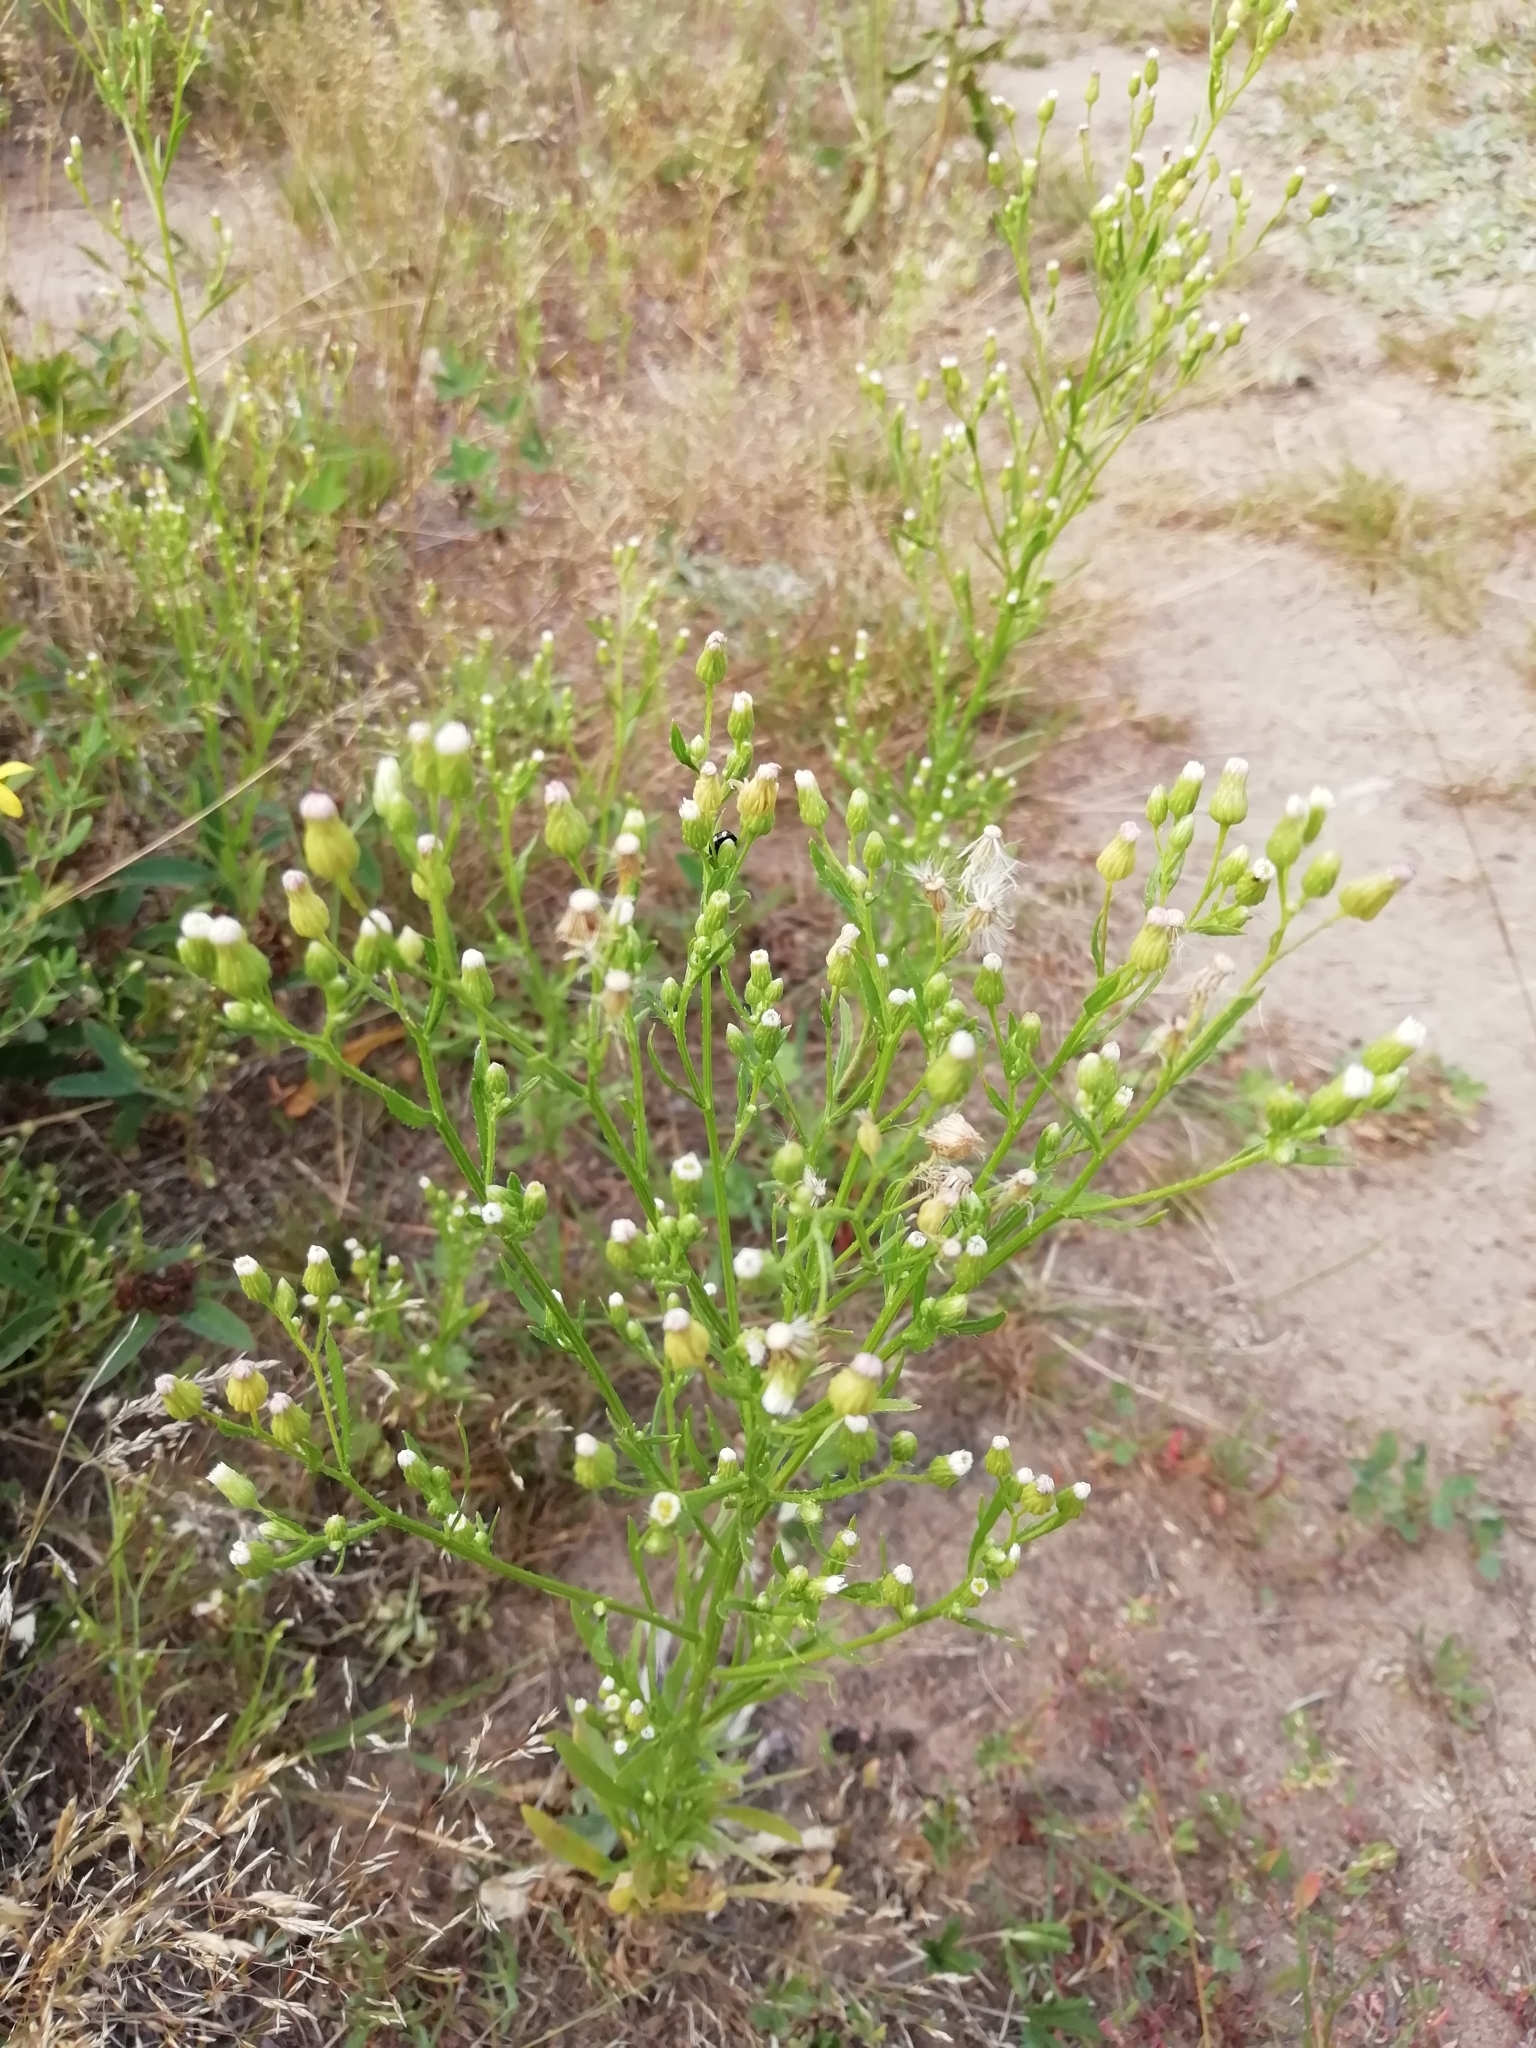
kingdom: Plantae
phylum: Tracheophyta
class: Magnoliopsida
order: Asterales
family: Asteraceae
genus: Erigeron
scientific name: Erigeron canadensis
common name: Canadian fleabane
